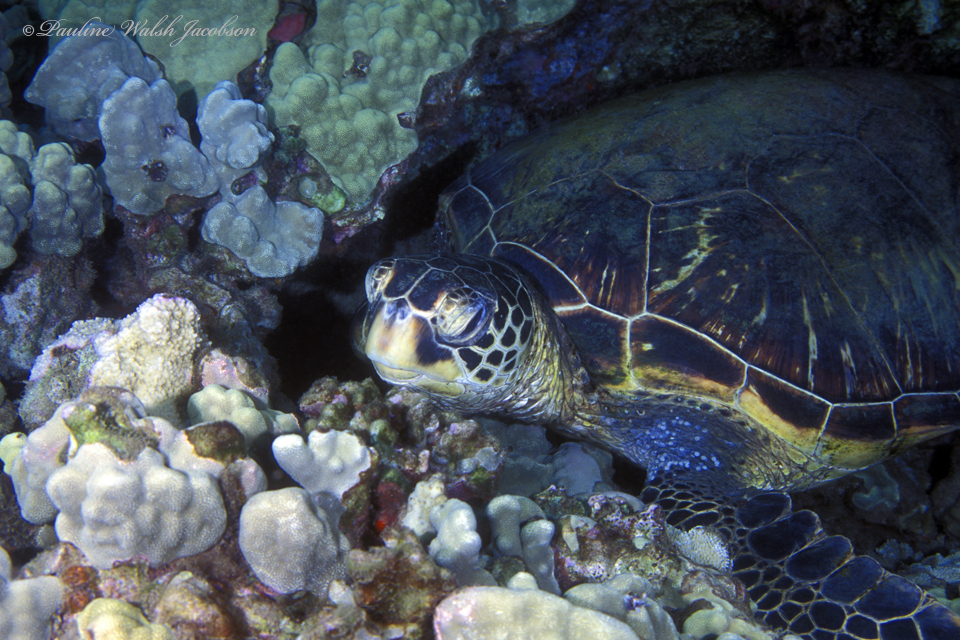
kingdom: Animalia
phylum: Chordata
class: Testudines
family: Cheloniidae
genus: Chelonia
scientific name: Chelonia mydas
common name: Green turtle
